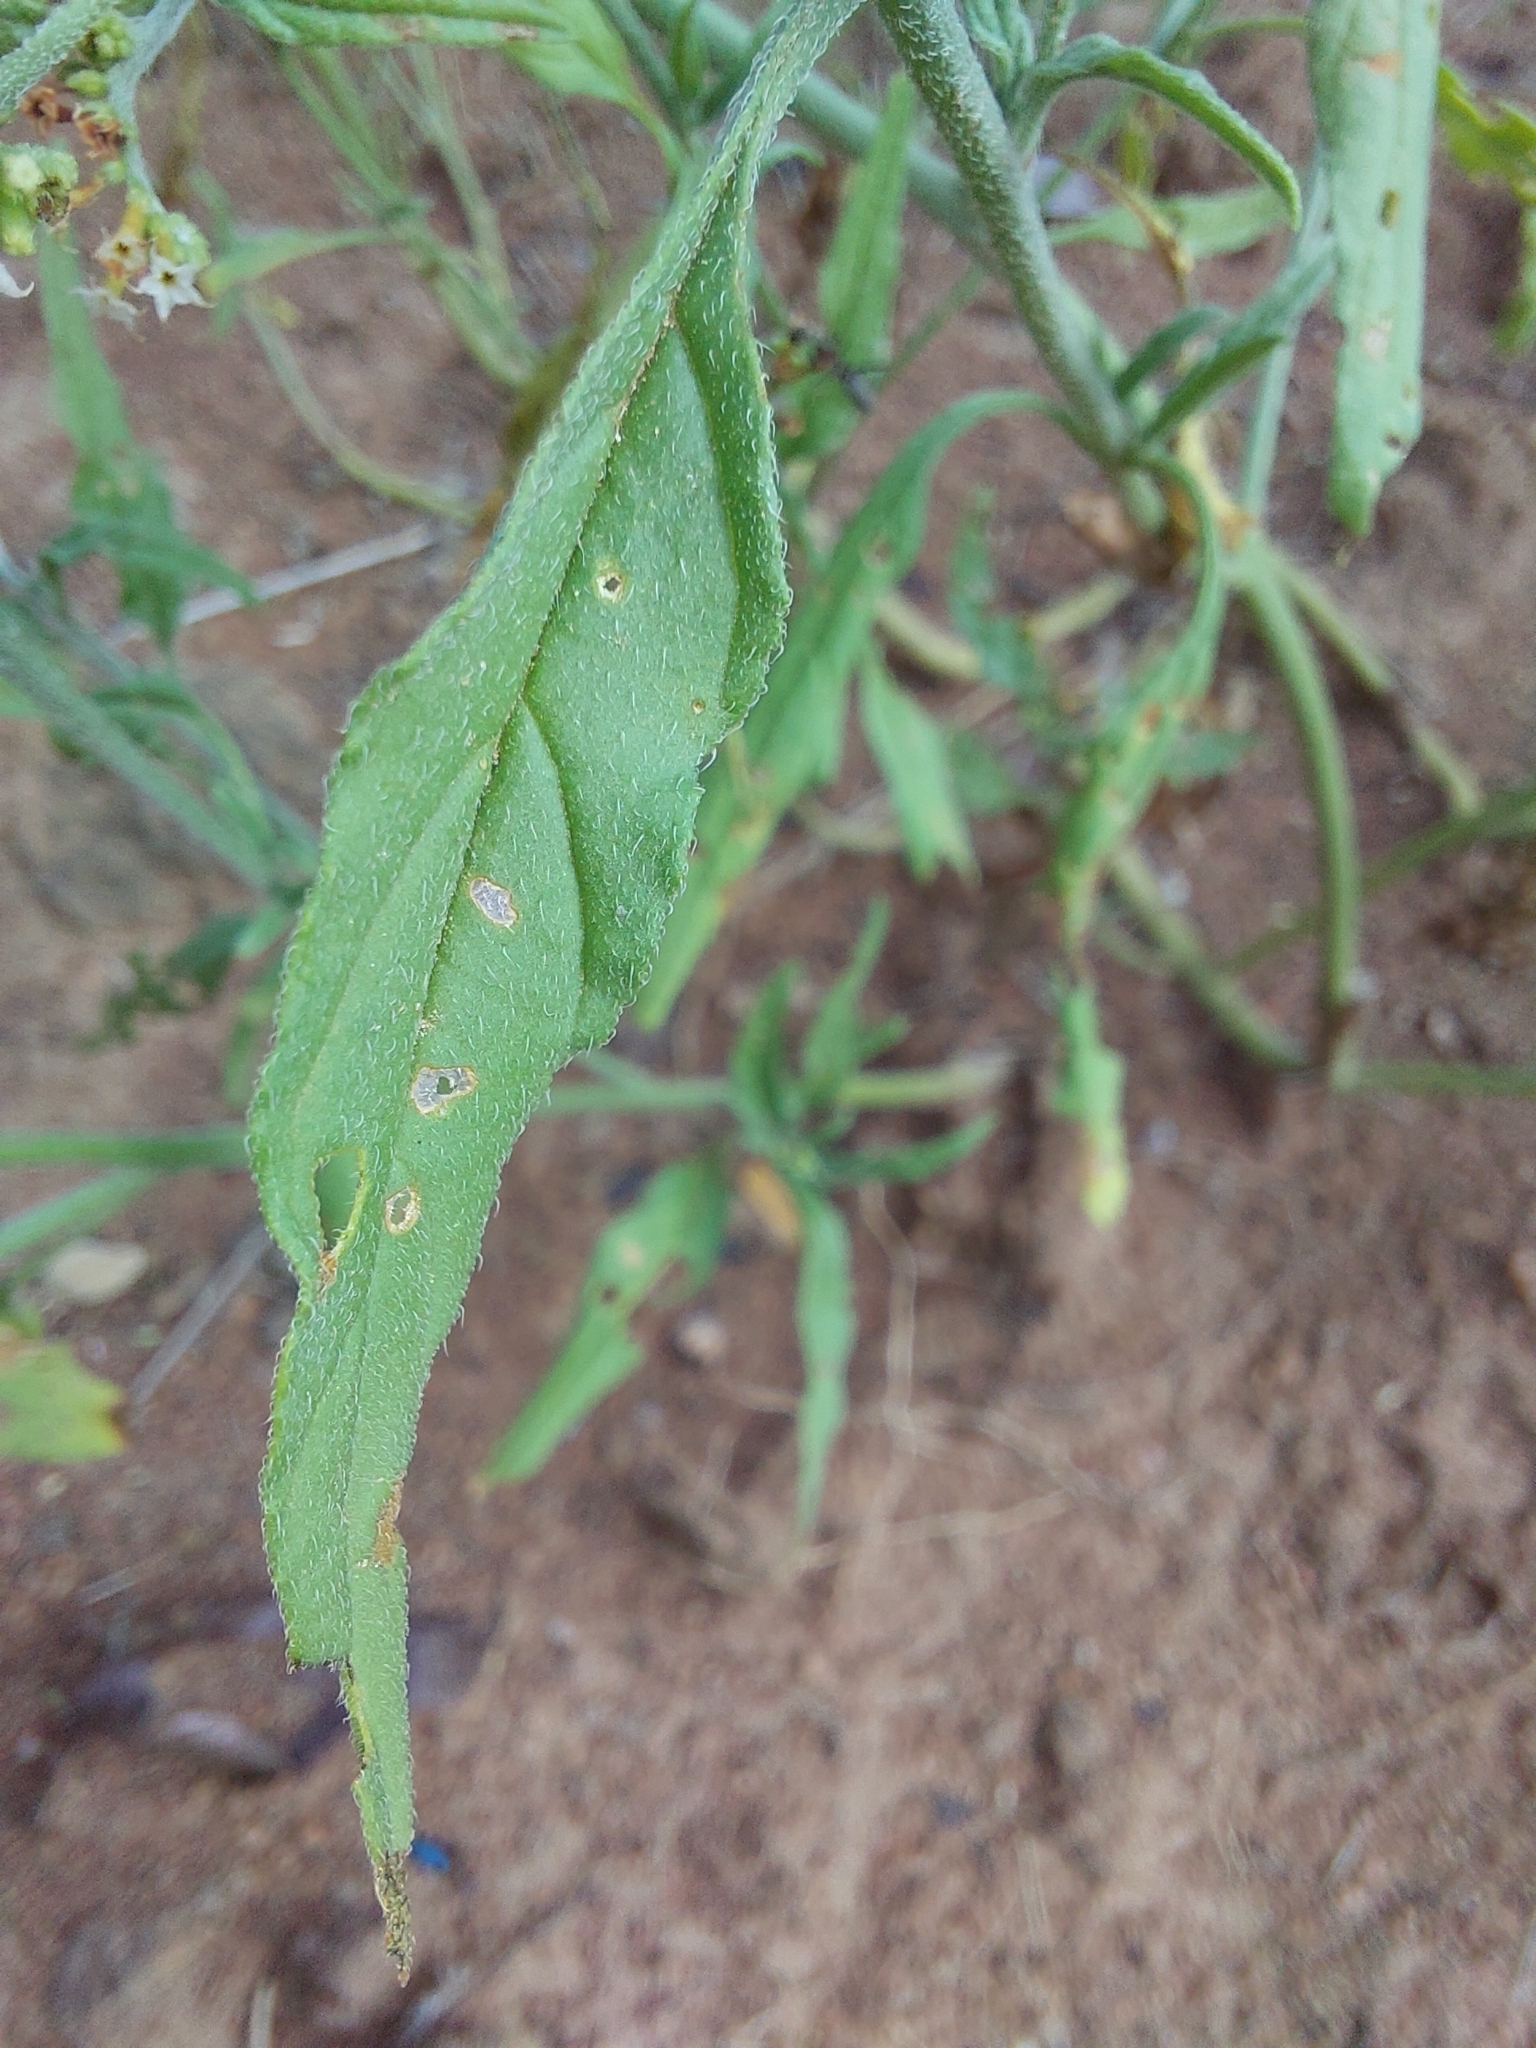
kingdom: Plantae
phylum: Tracheophyta
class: Magnoliopsida
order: Boraginales
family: Heliotropiaceae
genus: Heliotropium
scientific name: Heliotropium ciliatum
